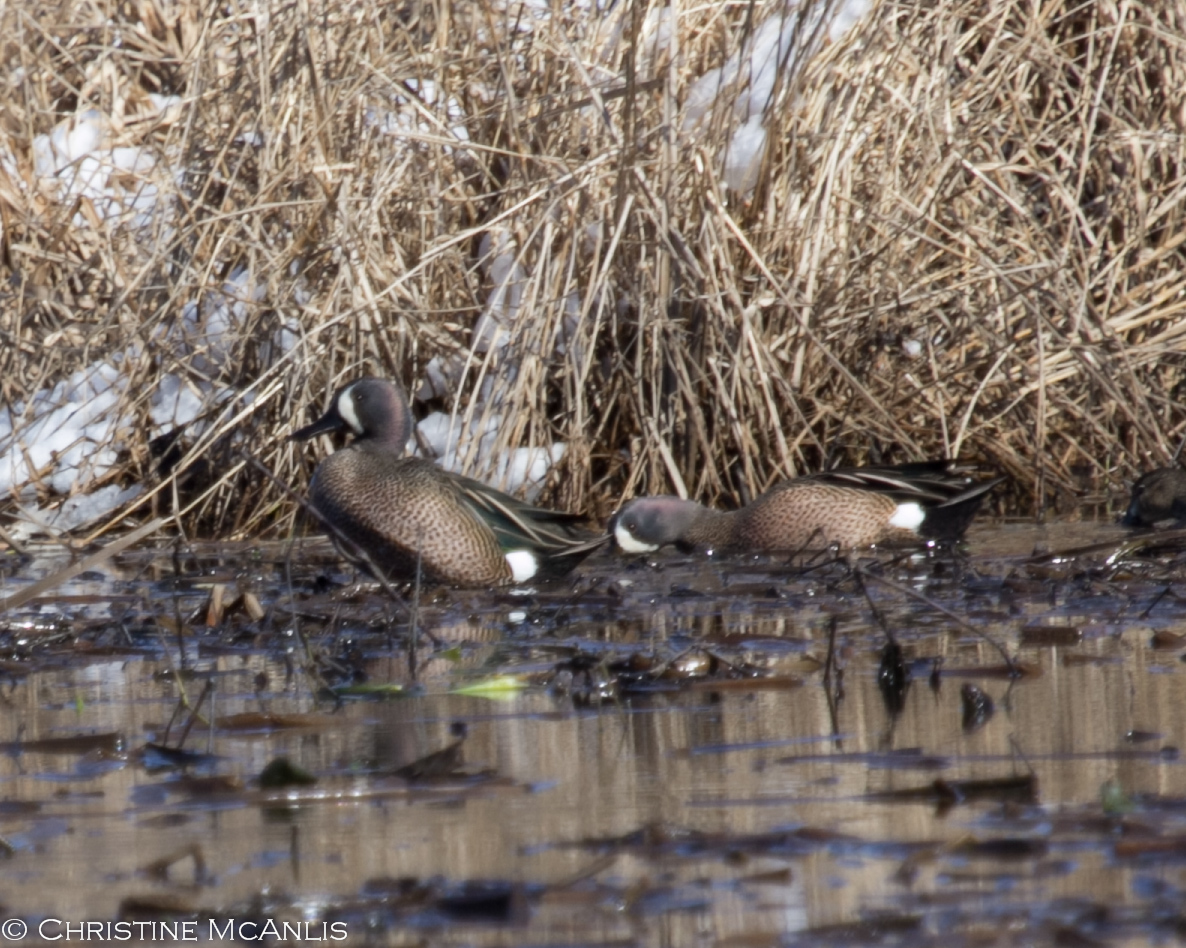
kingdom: Animalia
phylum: Chordata
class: Aves
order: Anseriformes
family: Anatidae
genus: Spatula
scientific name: Spatula discors
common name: Blue-winged teal
